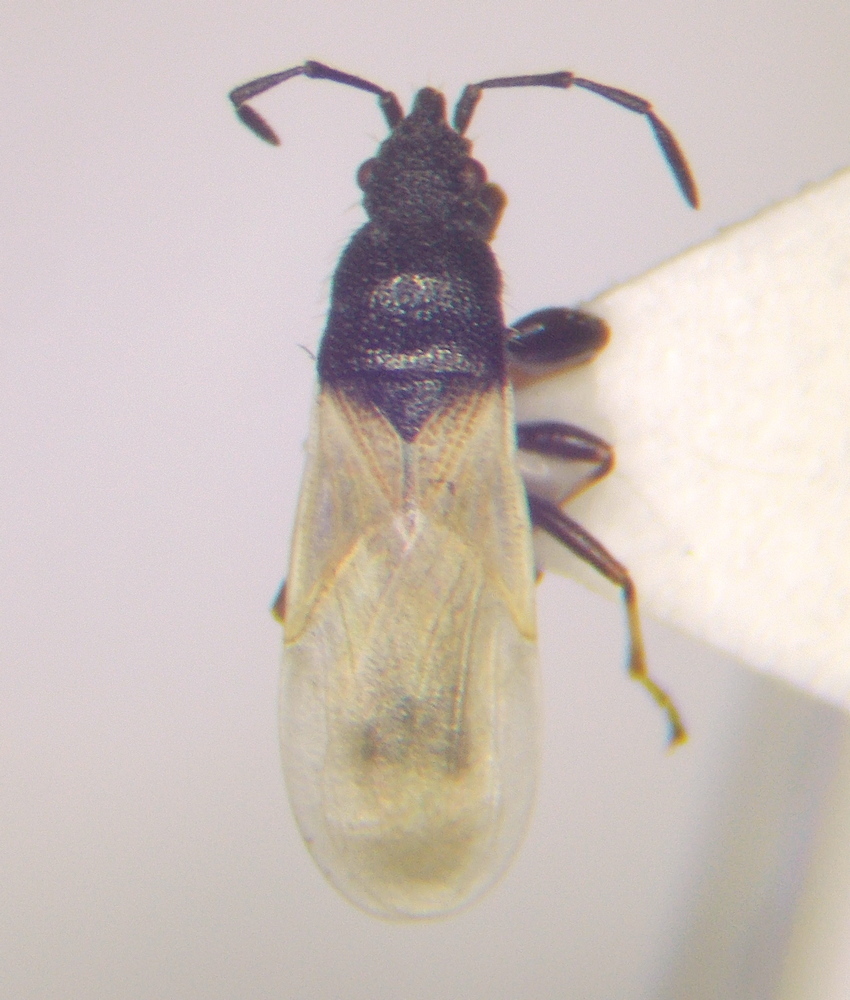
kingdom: Animalia
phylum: Arthropoda
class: Insecta
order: Hemiptera
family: Oxycarenidae
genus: Brachyplax
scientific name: Brachyplax tenuis
